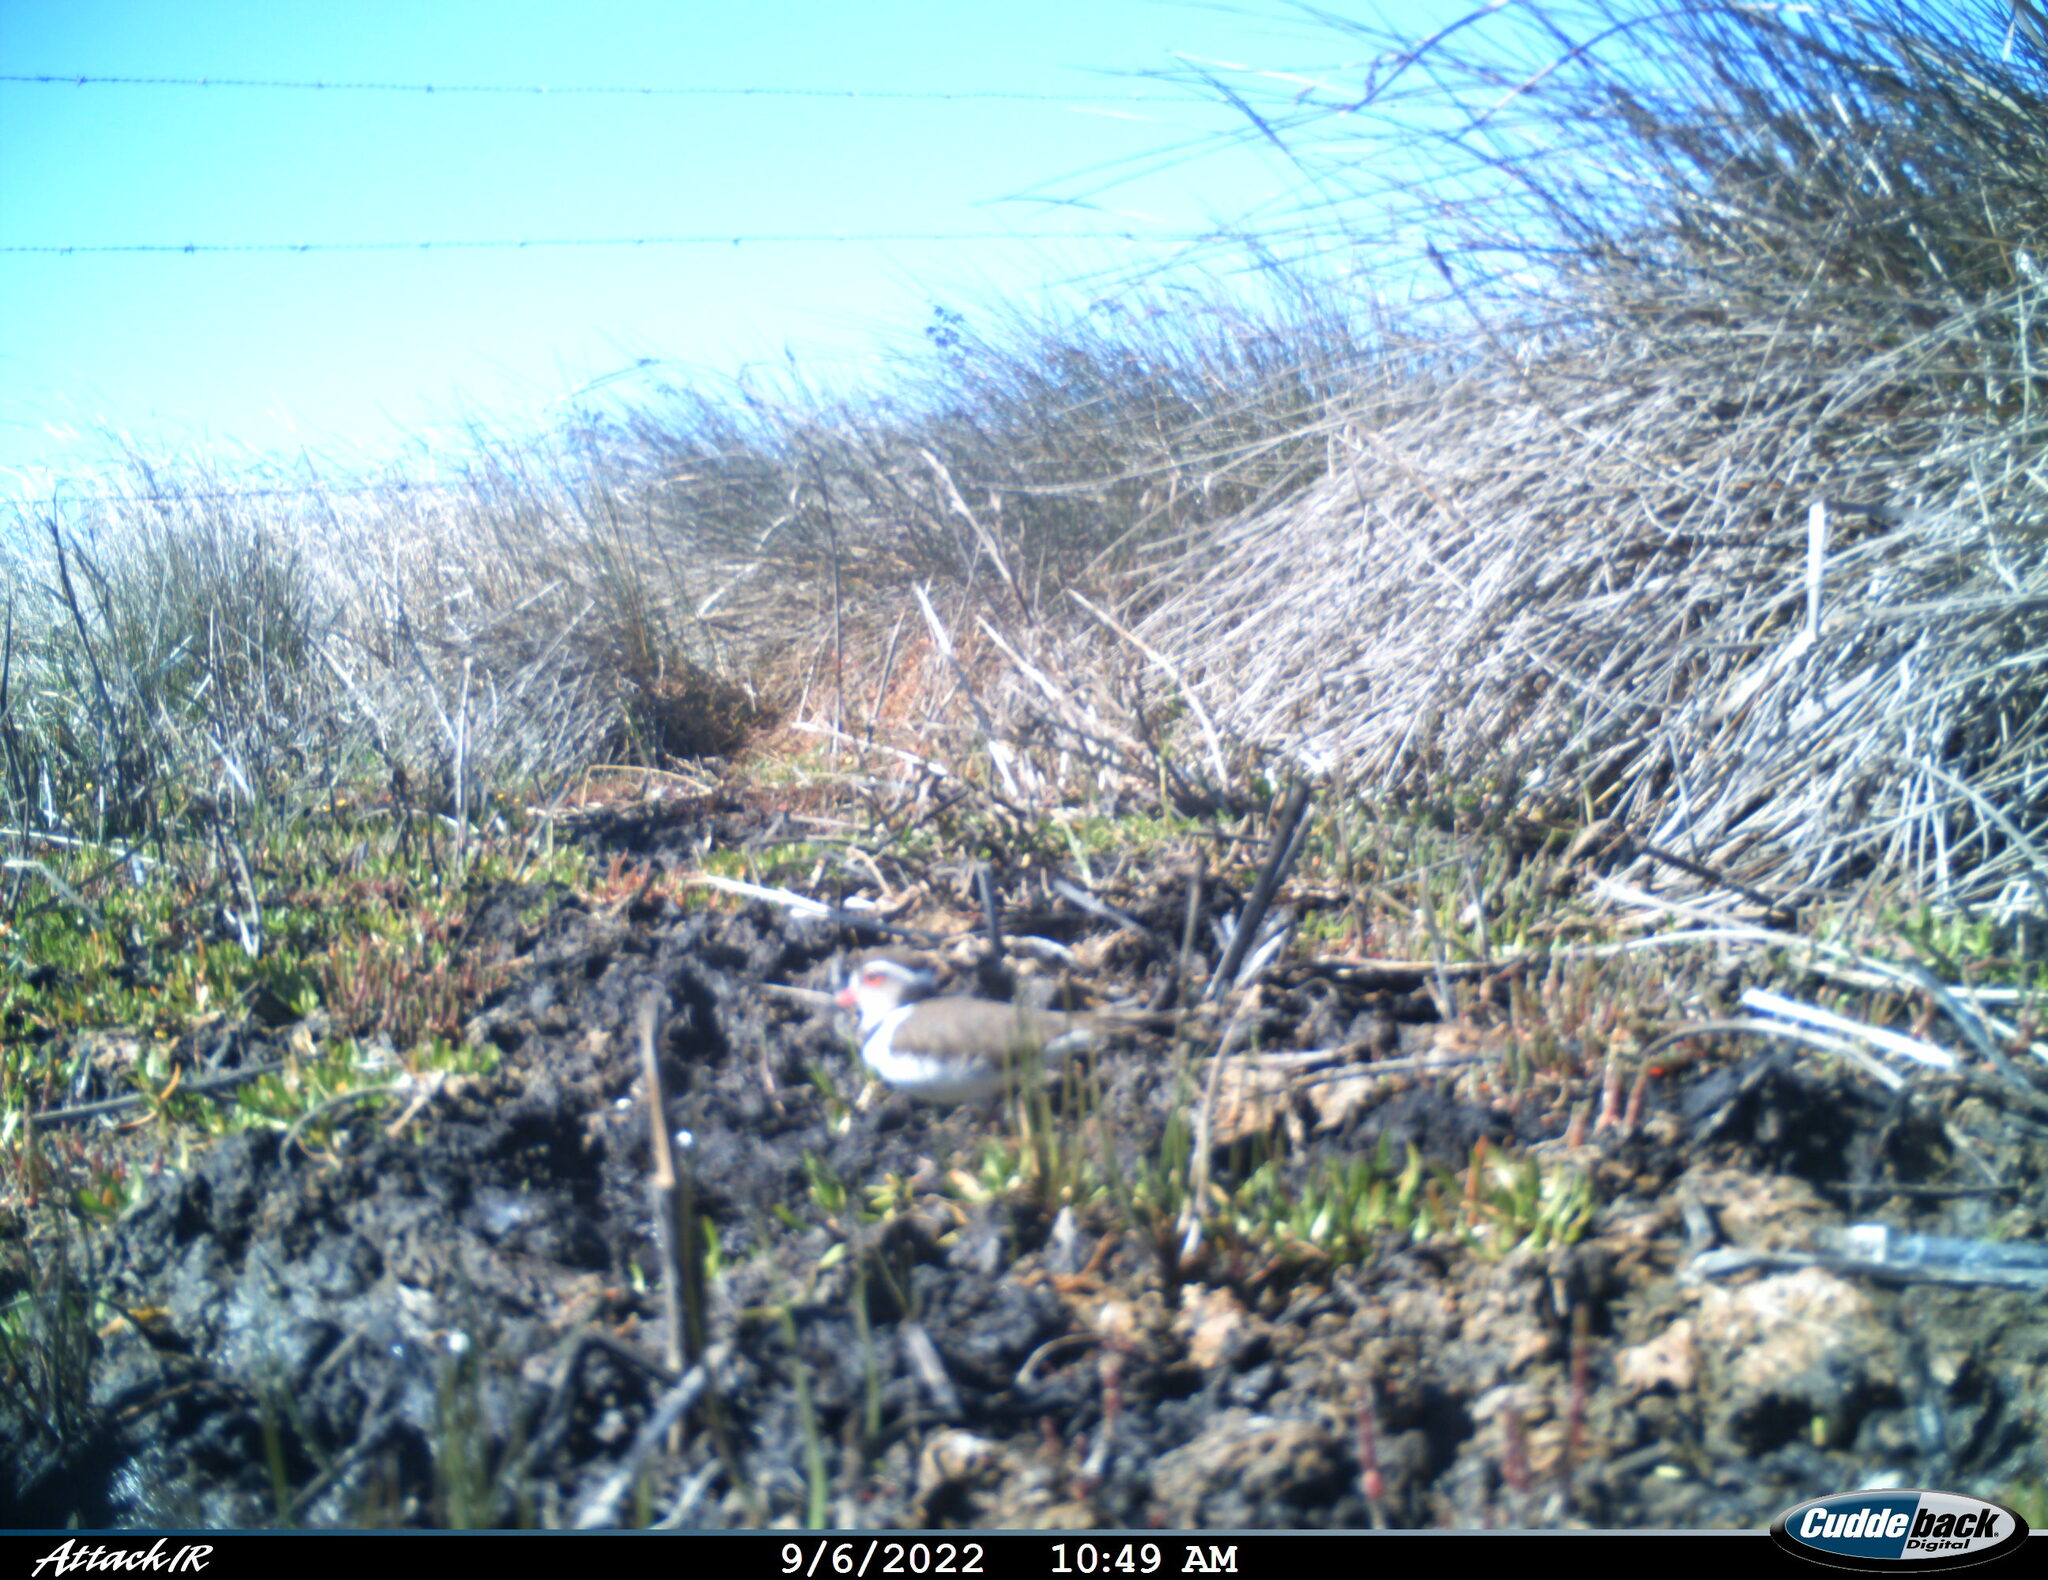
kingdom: Animalia
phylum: Chordata
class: Aves
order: Charadriiformes
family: Charadriidae
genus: Charadrius
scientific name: Charadrius tricollaris
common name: Three-banded plover
